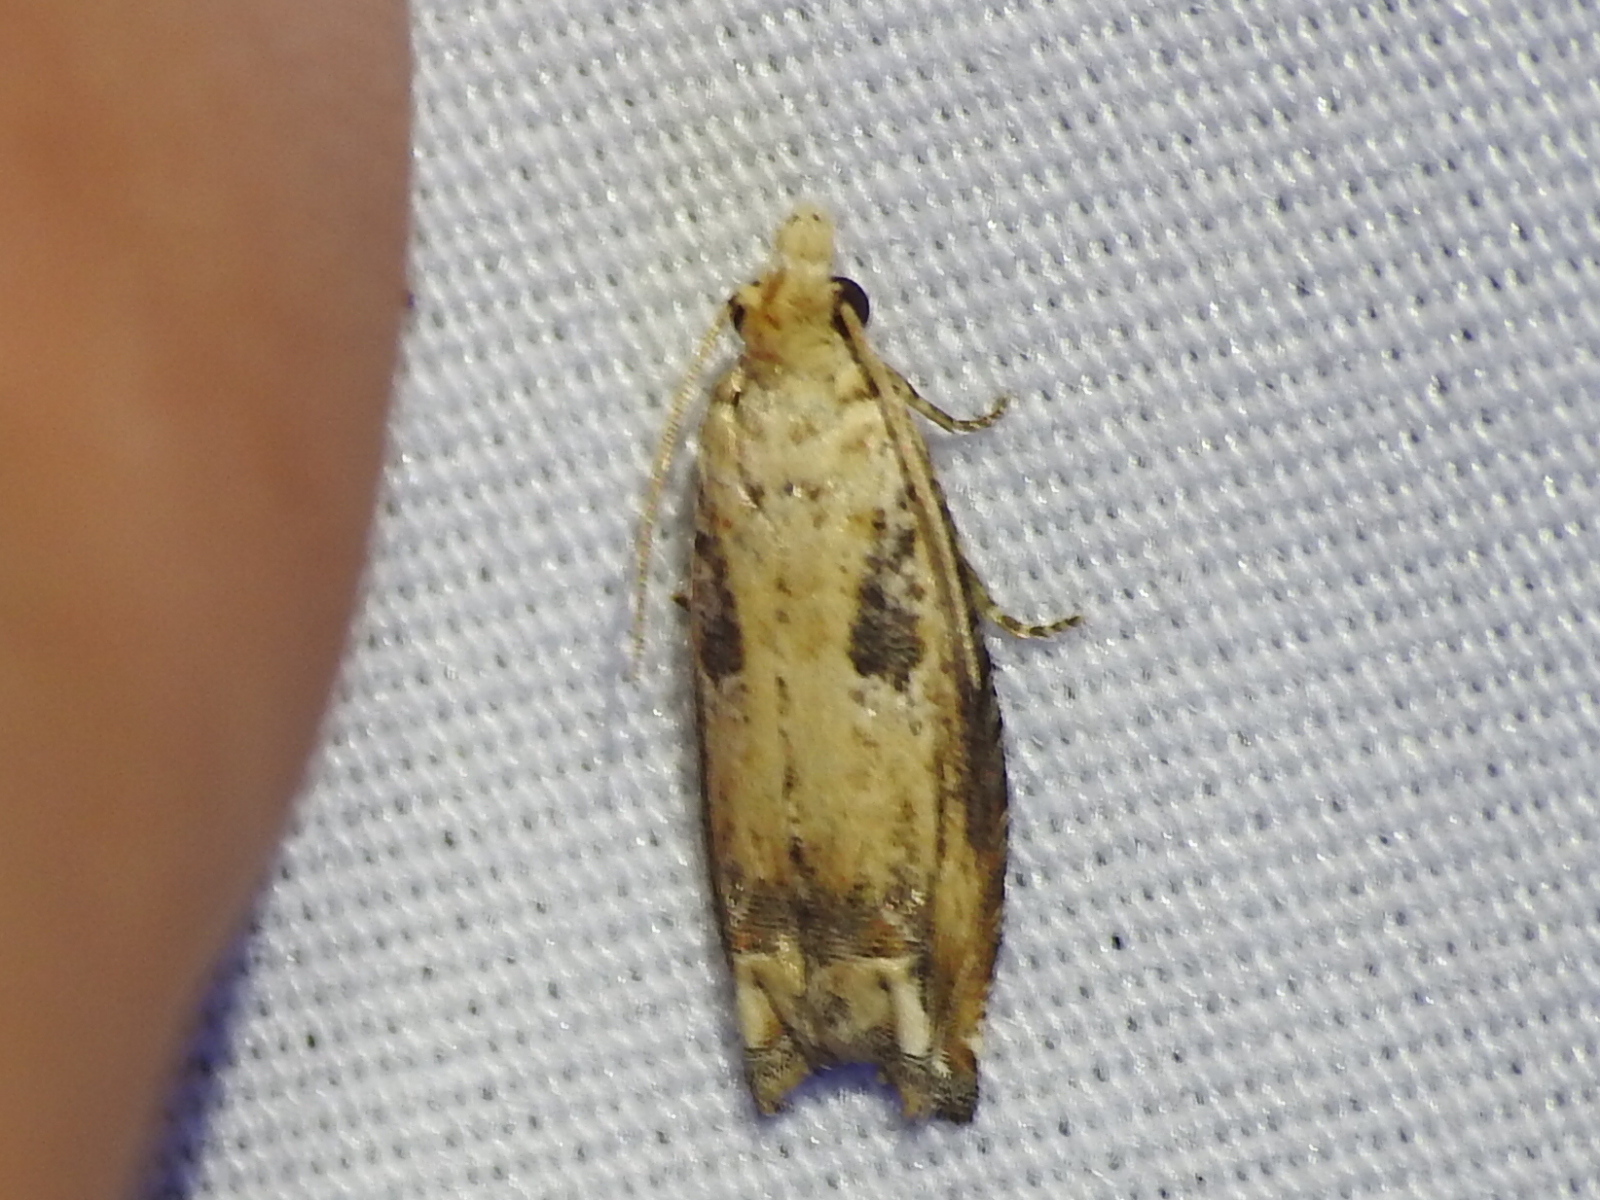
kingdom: Animalia
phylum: Arthropoda
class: Insecta
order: Lepidoptera
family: Tortricidae
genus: Epiblema
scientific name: Epiblema chromata
